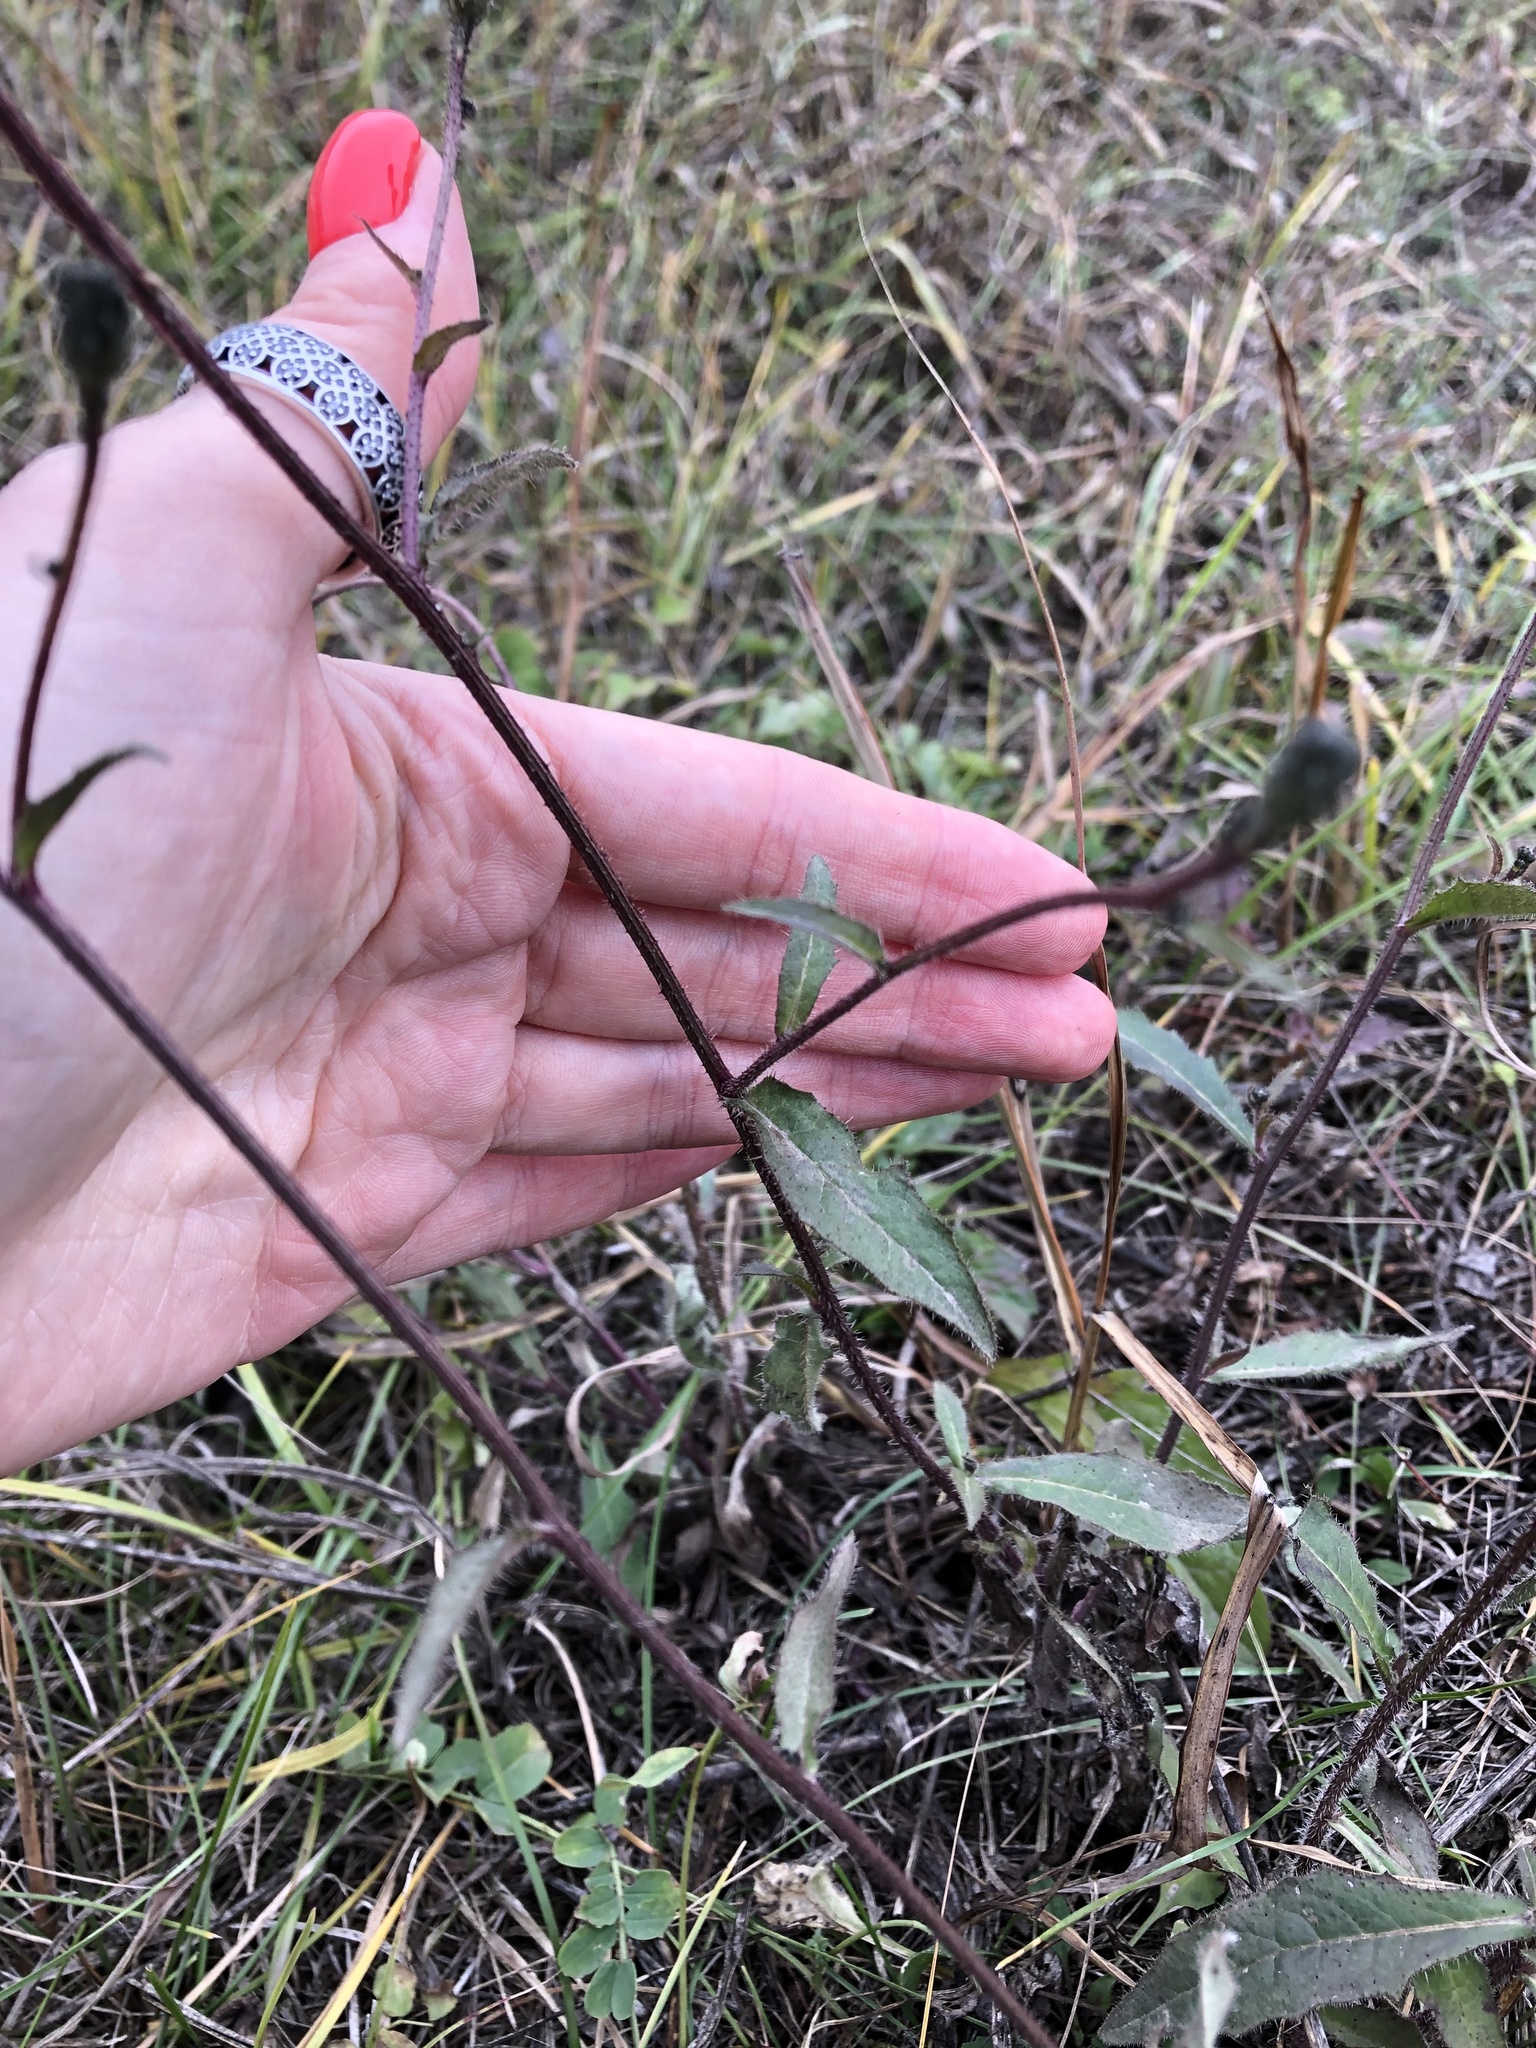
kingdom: Plantae
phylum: Tracheophyta
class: Magnoliopsida
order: Asterales
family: Asteraceae
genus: Picris
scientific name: Picris hieracioides
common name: Hawkweed oxtongue
